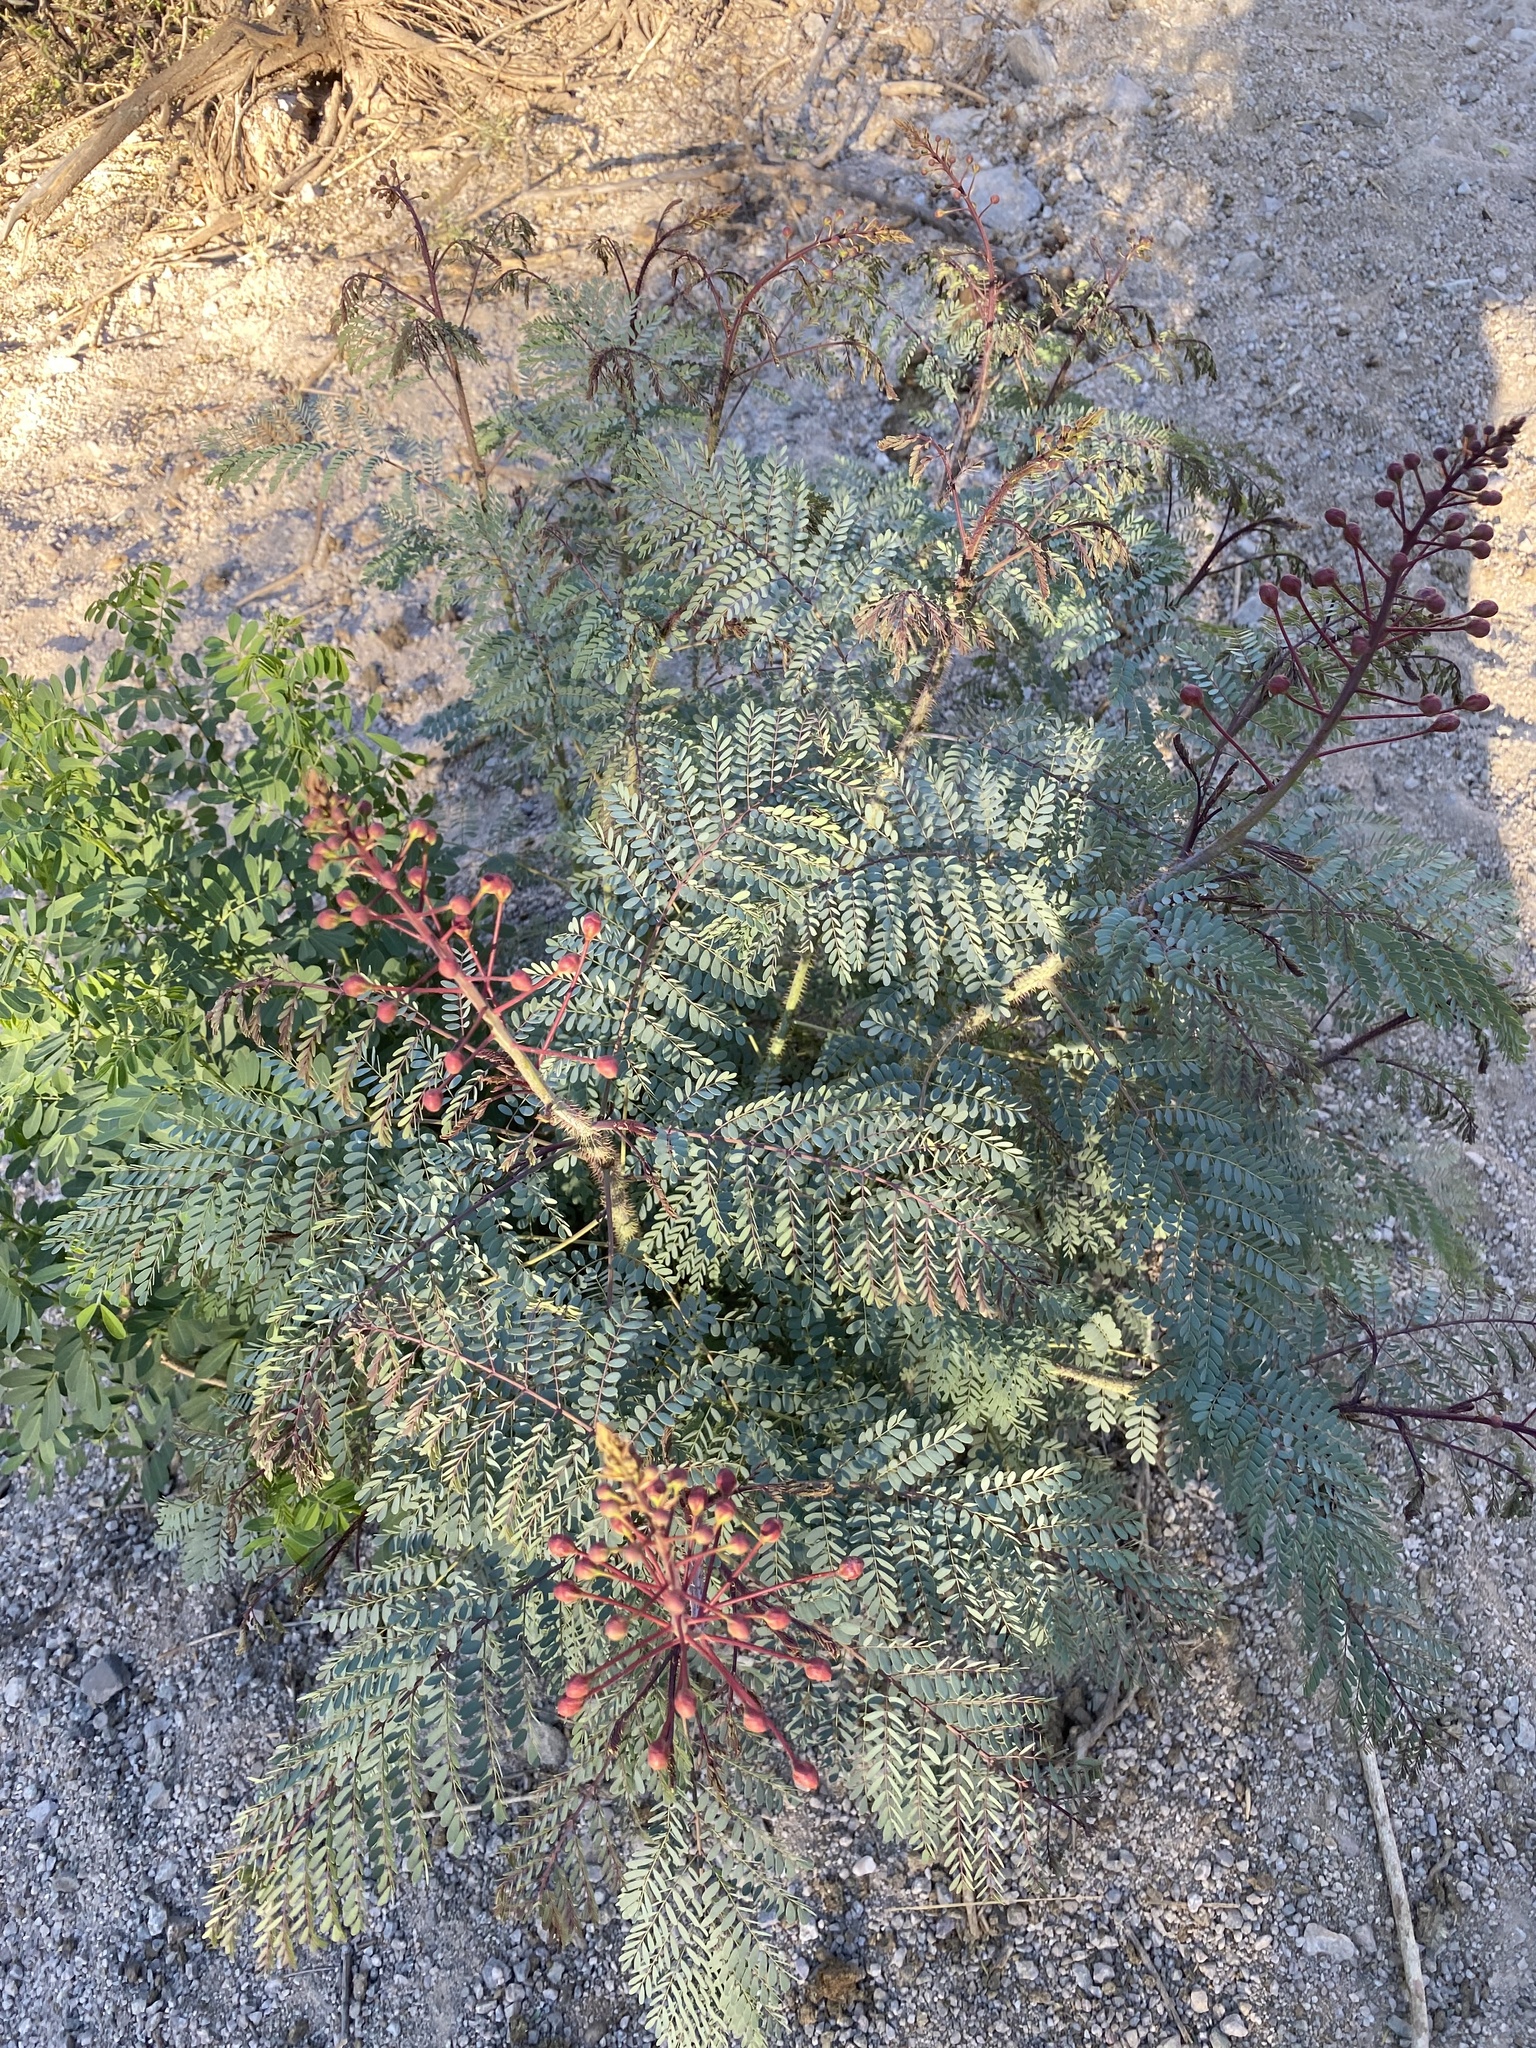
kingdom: Plantae
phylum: Tracheophyta
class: Magnoliopsida
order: Fabales
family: Fabaceae
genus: Caesalpinia
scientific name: Caesalpinia pulcherrima
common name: Pride-of-barbados
